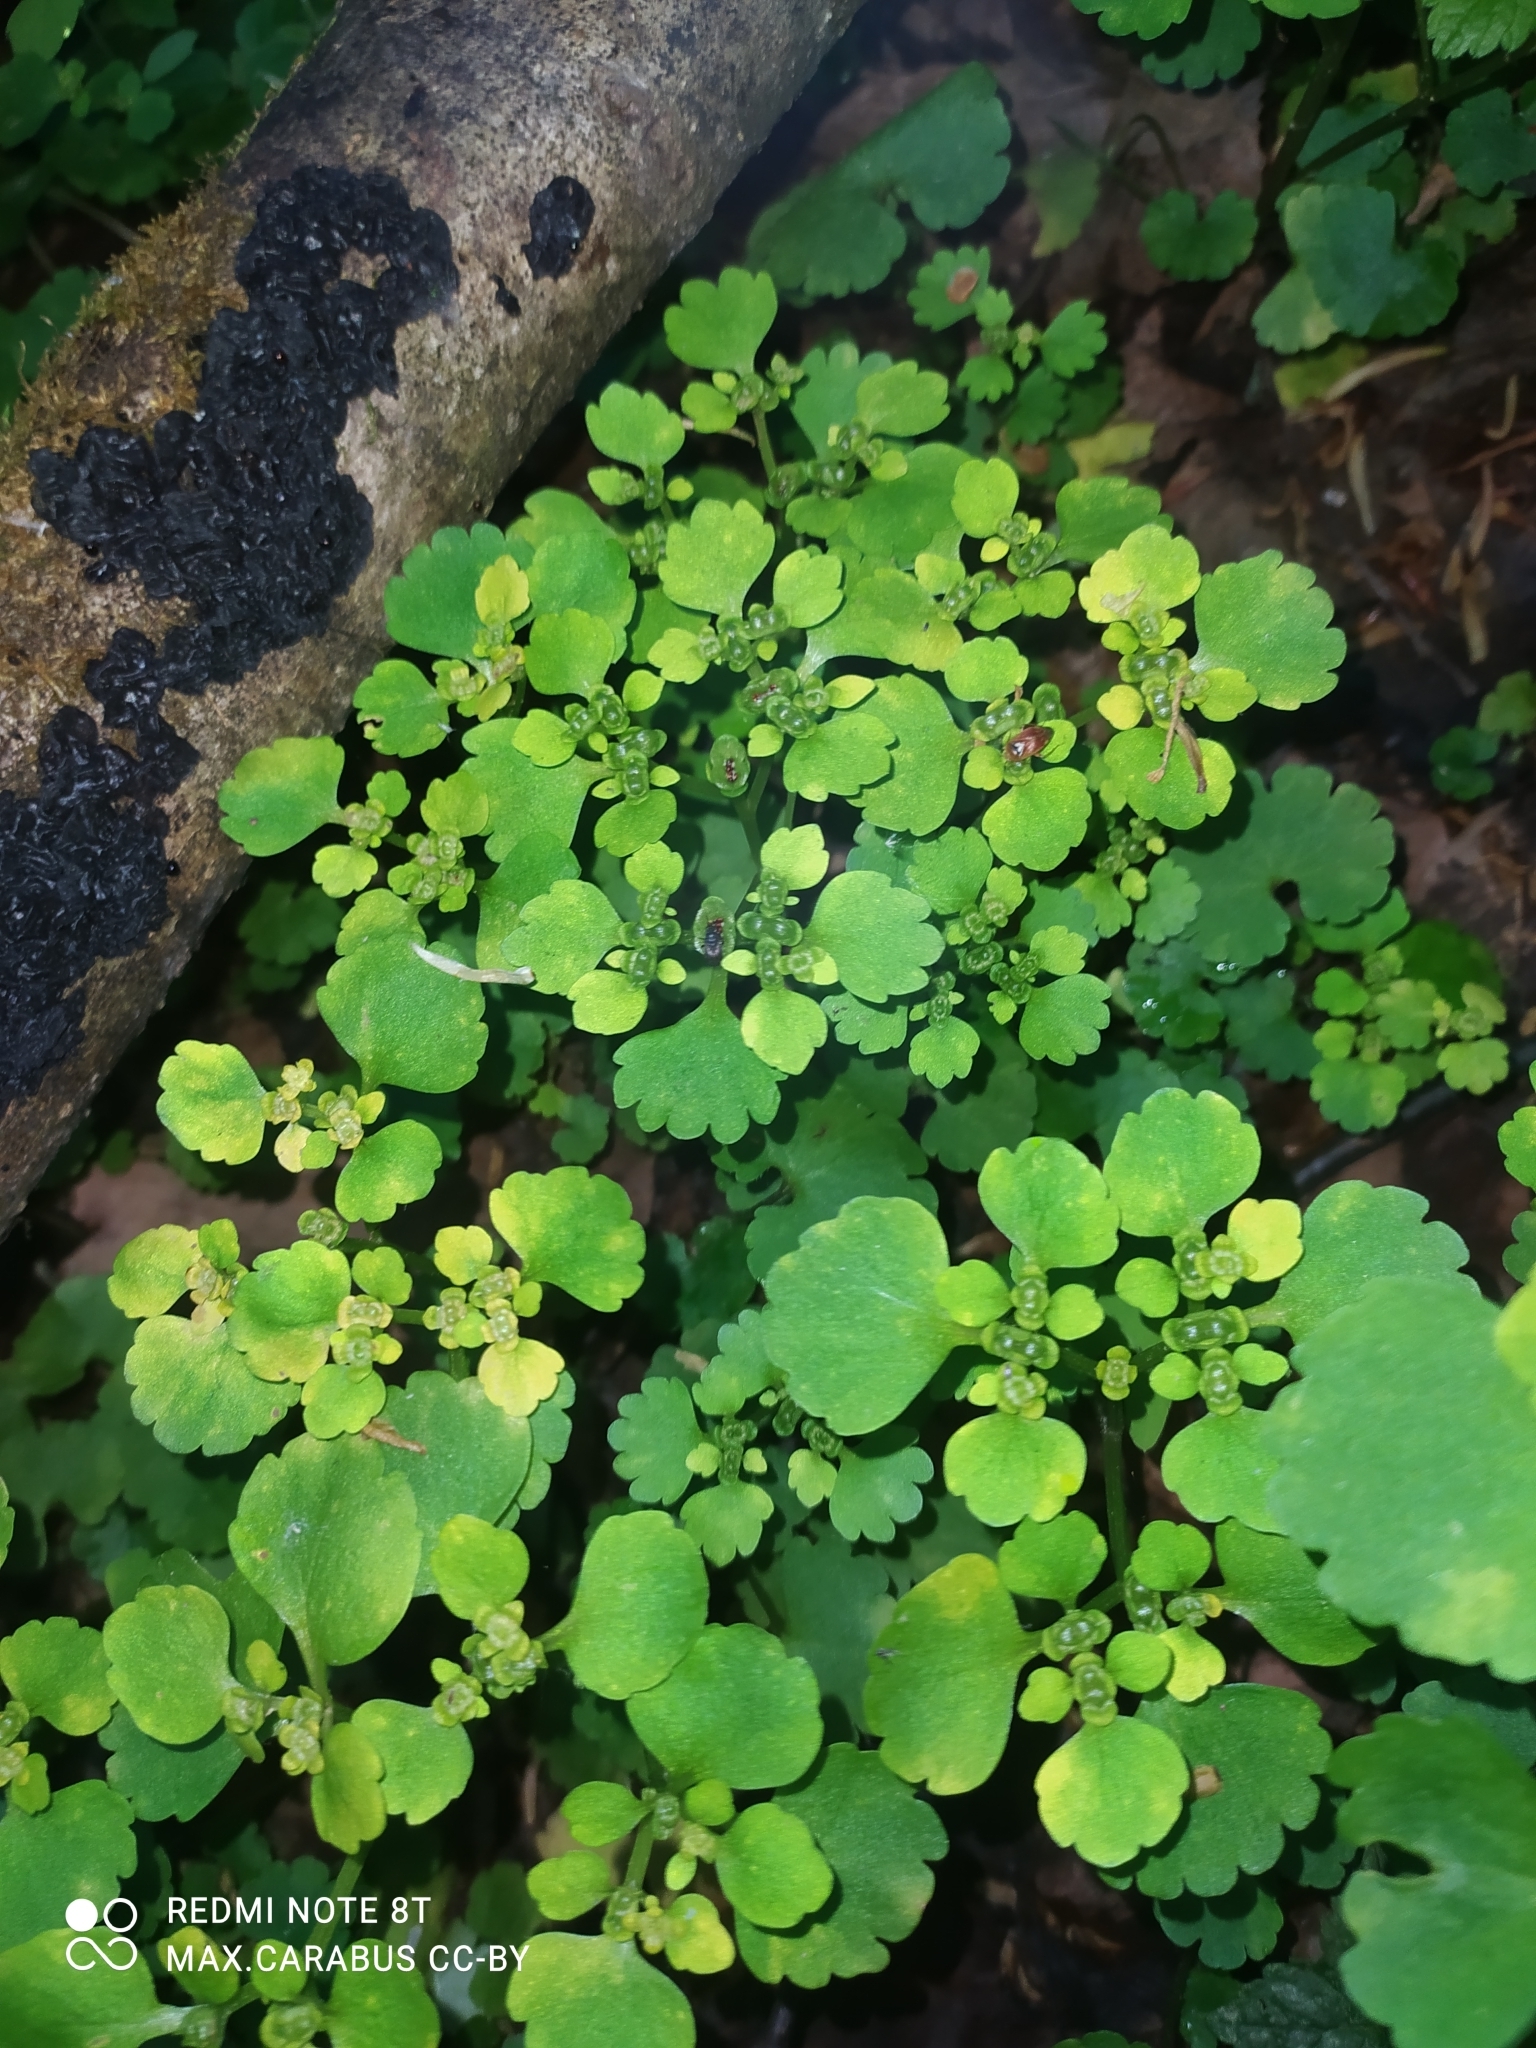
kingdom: Plantae
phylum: Tracheophyta
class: Magnoliopsida
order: Saxifragales
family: Saxifragaceae
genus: Chrysosplenium
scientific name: Chrysosplenium alternifolium
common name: Alternate-leaved golden-saxifrage
